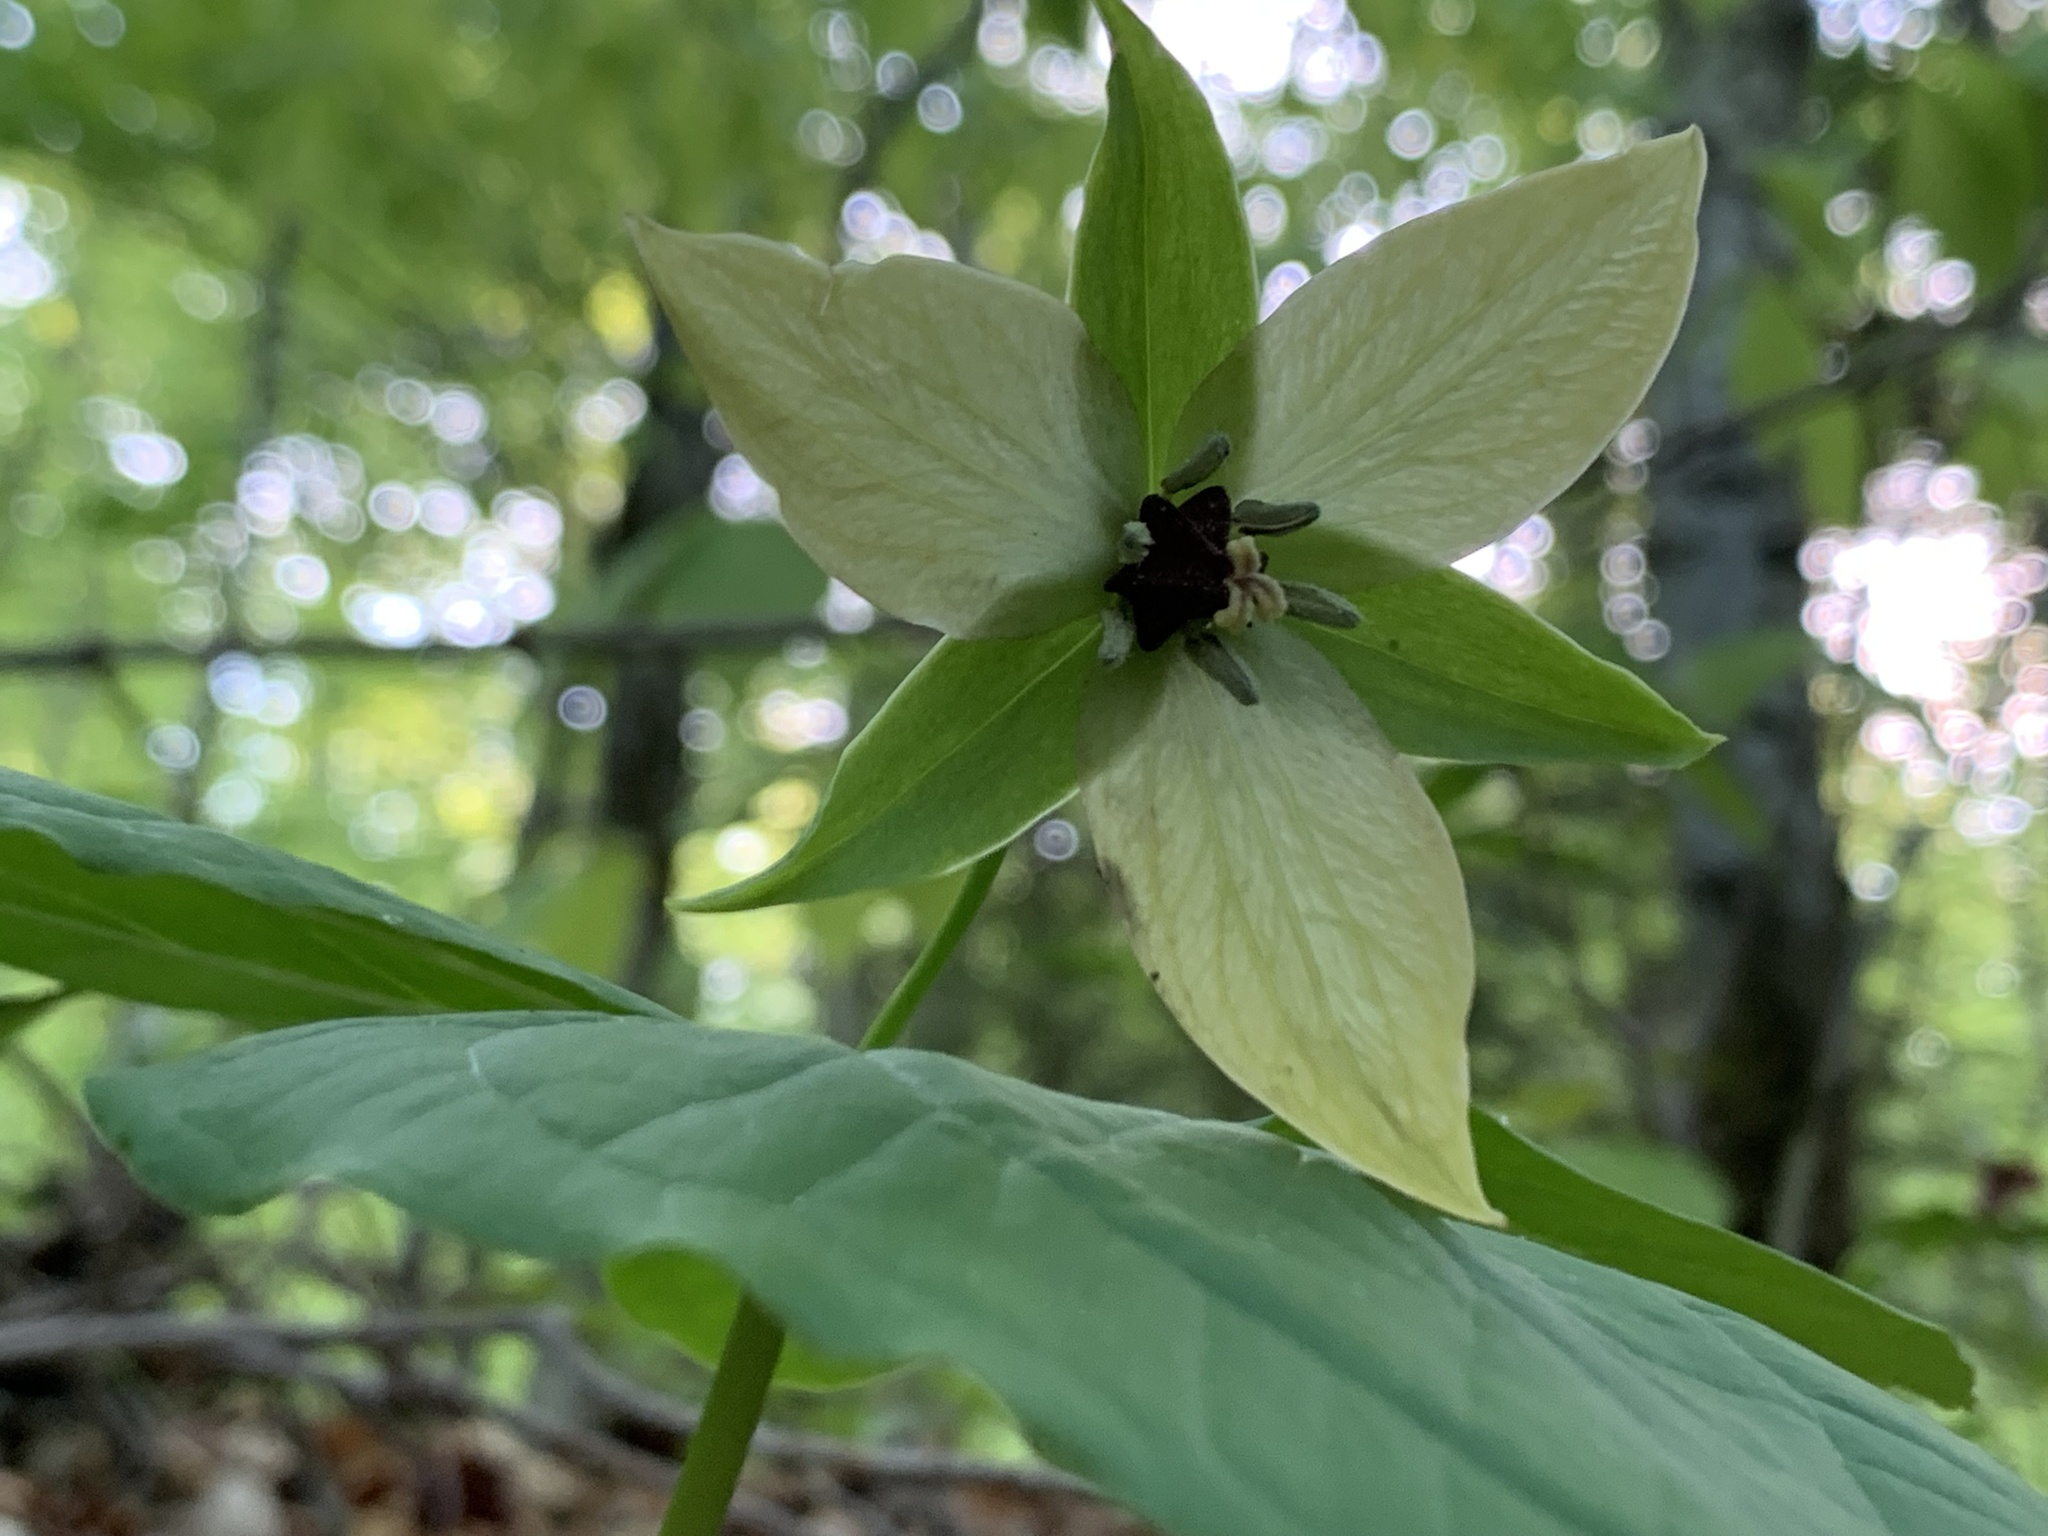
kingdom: Plantae
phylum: Tracheophyta
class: Liliopsida
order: Liliales
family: Melanthiaceae
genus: Trillium
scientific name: Trillium erectum
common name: Purple trillium
